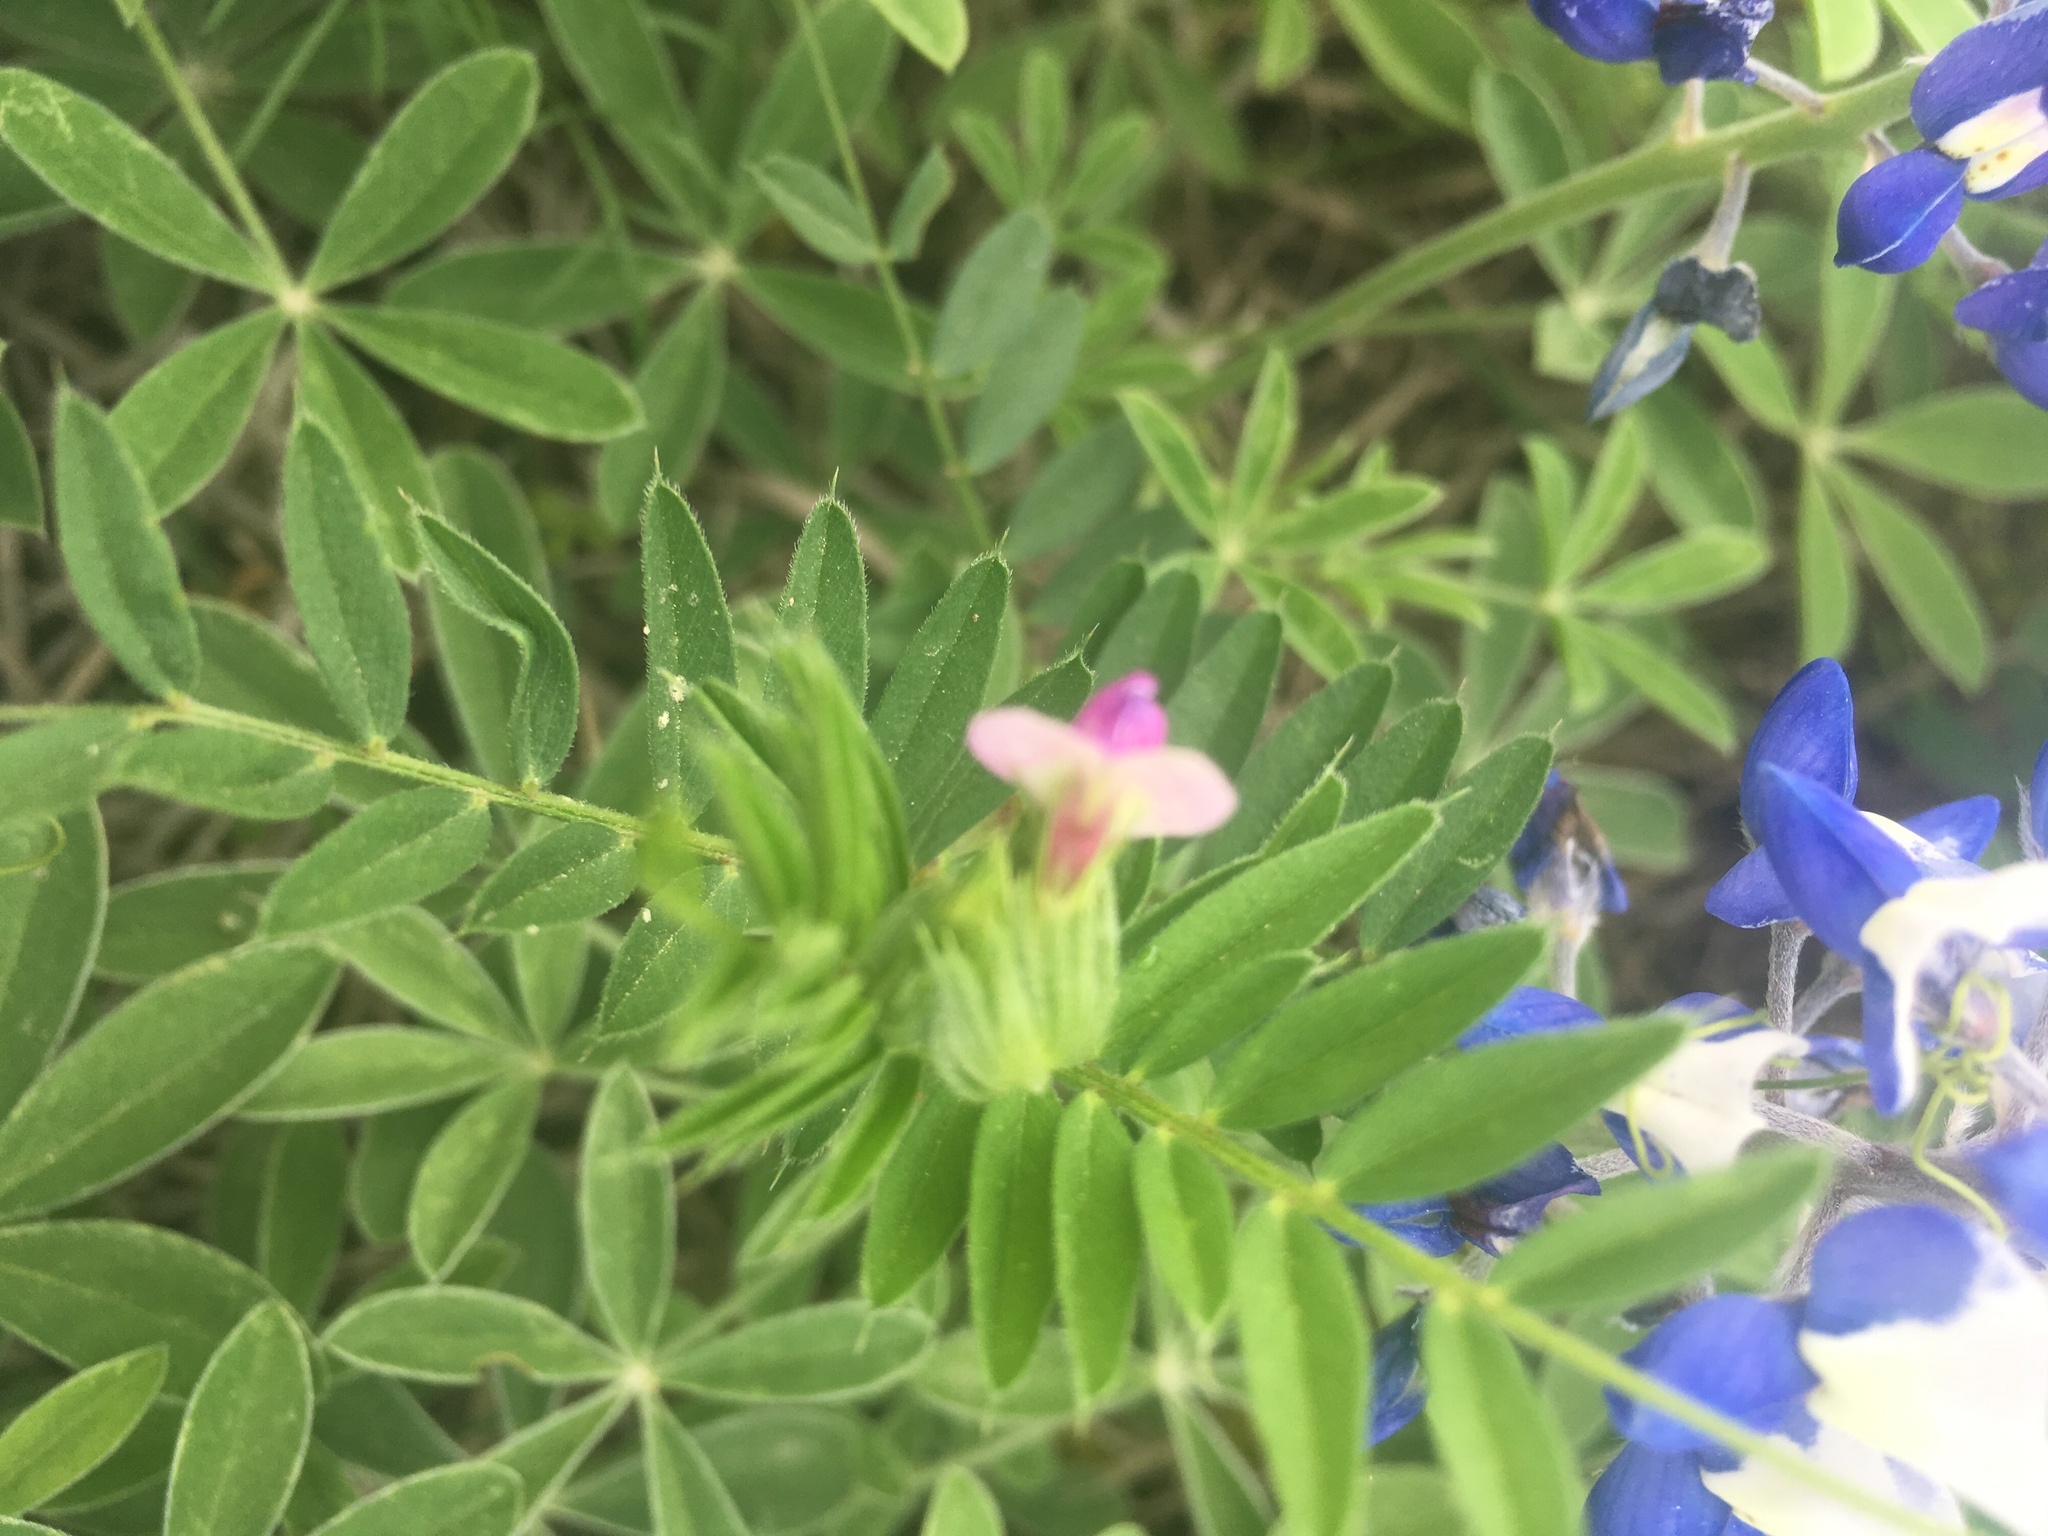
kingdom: Plantae
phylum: Tracheophyta
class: Magnoliopsida
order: Fabales
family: Fabaceae
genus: Vicia
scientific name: Vicia sativa
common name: Garden vetch
